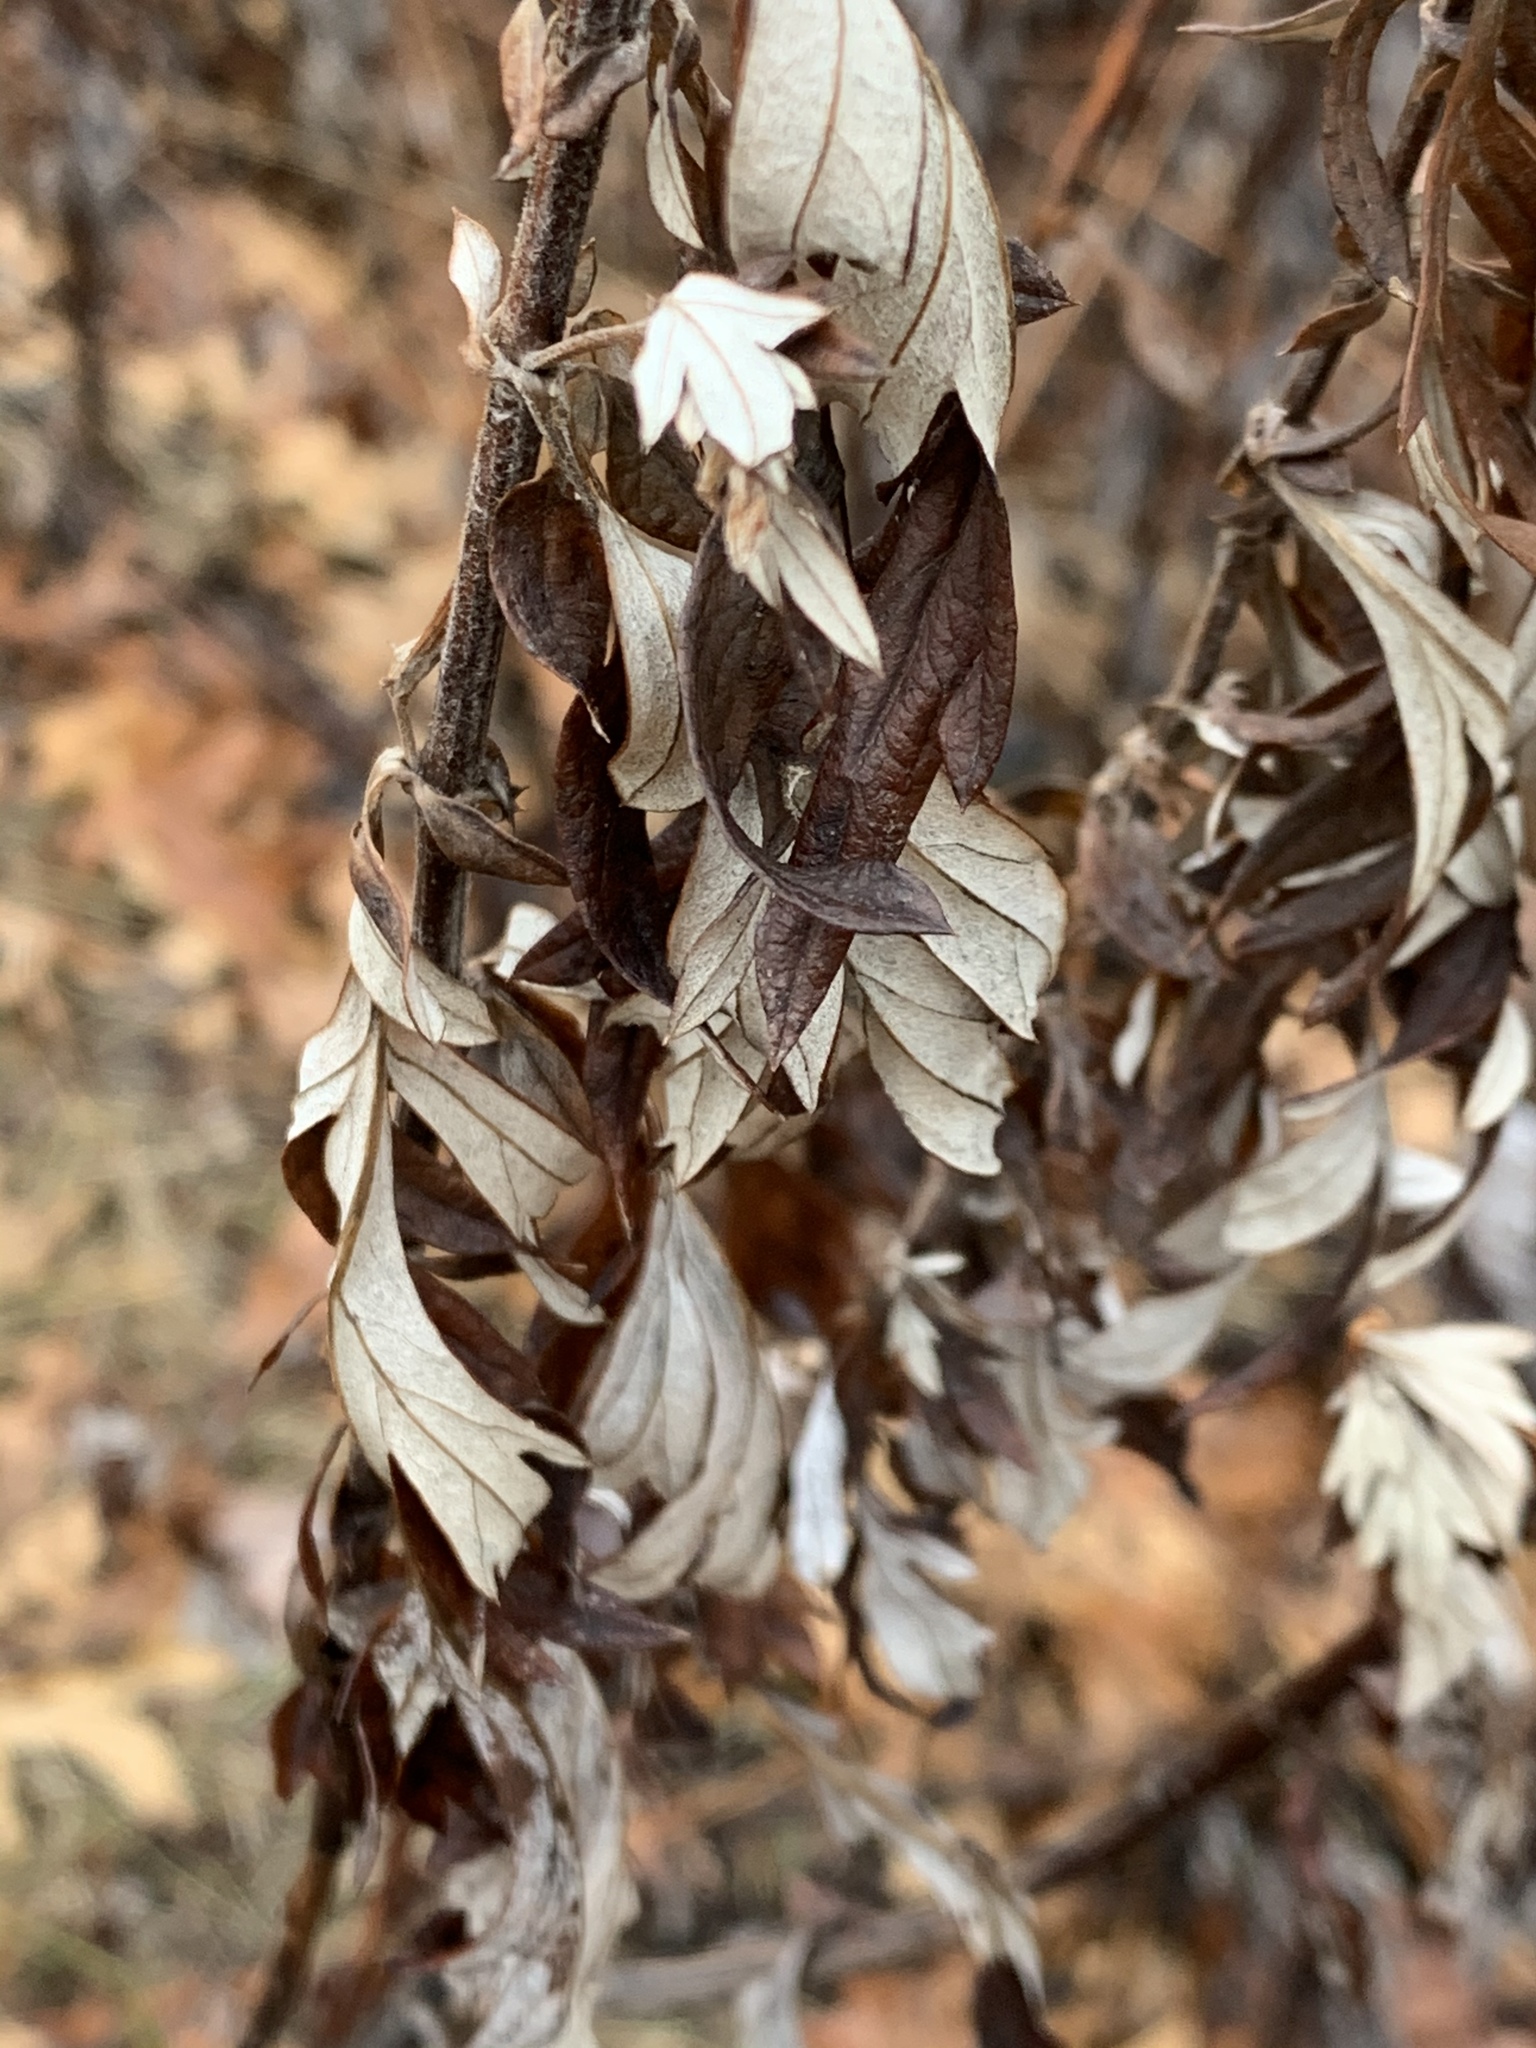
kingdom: Plantae
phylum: Tracheophyta
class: Magnoliopsida
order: Asterales
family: Asteraceae
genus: Artemisia
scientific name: Artemisia vulgaris
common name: Mugwort
